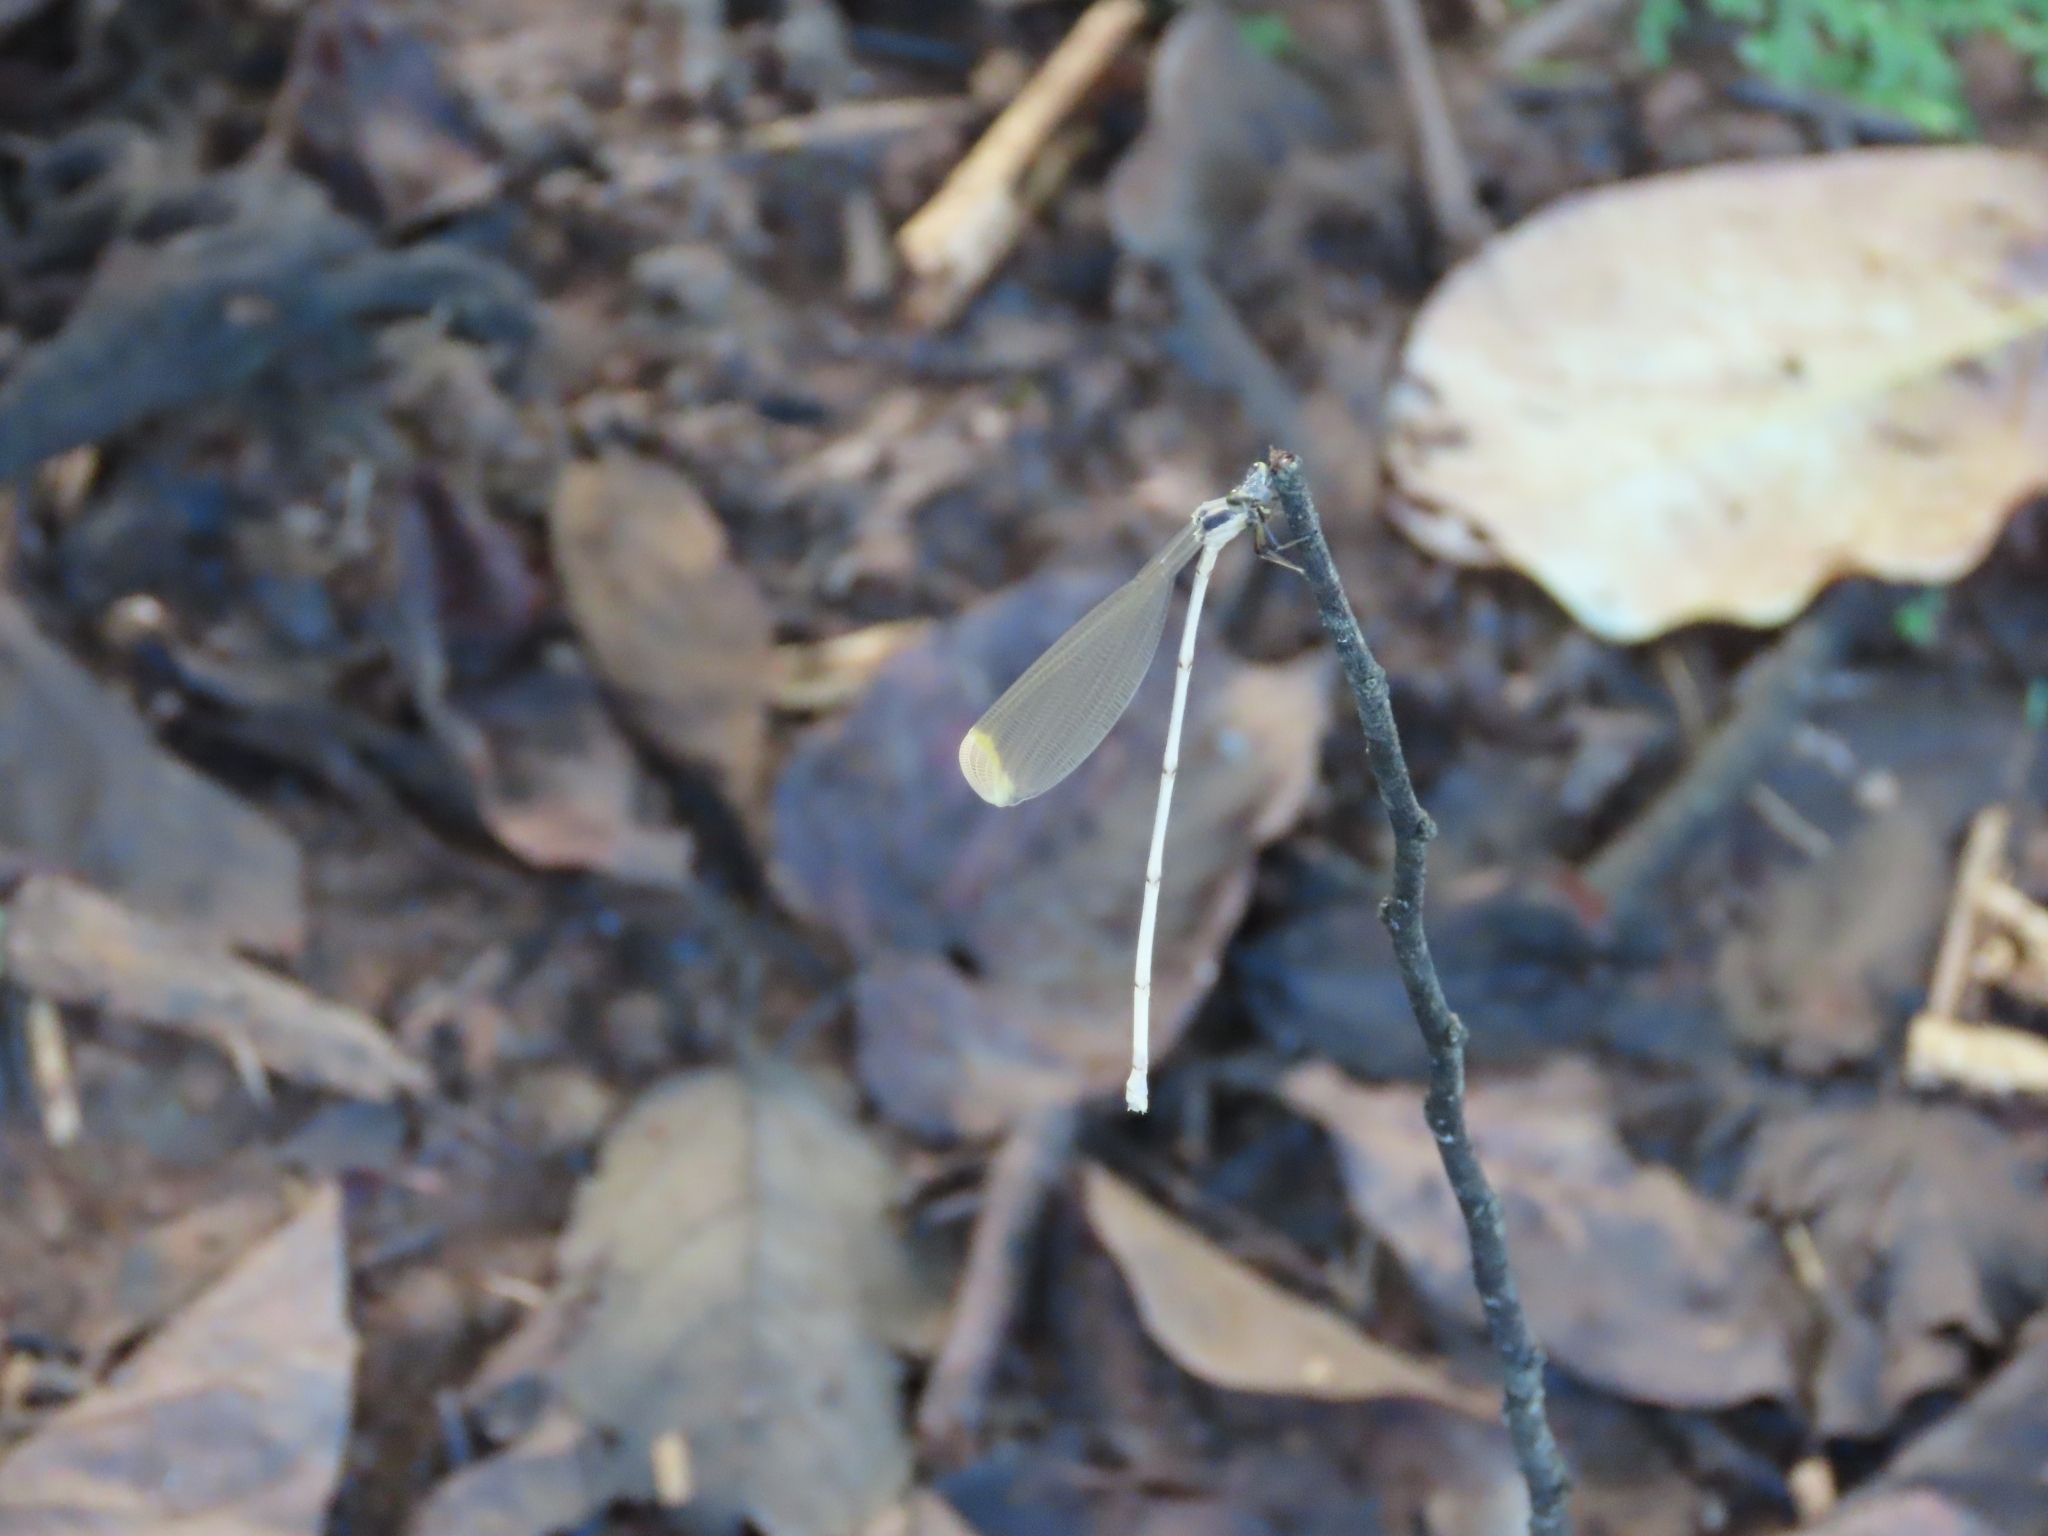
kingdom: Animalia
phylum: Arthropoda
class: Insecta
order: Odonata
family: Coenagrionidae
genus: Mecistogaster
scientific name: Mecistogaster ornata
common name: Ornate helicopter
